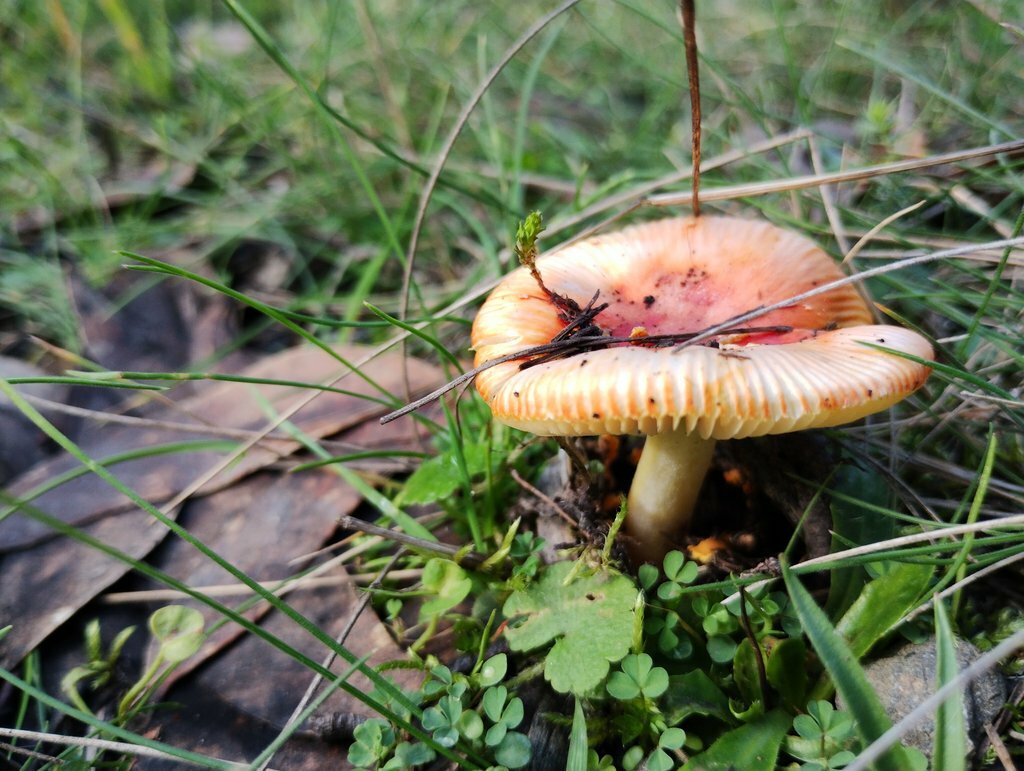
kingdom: Fungi
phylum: Basidiomycota
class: Agaricomycetes
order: Agaricales
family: Amanitaceae
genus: Amanita
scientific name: Amanita xanthocephala
